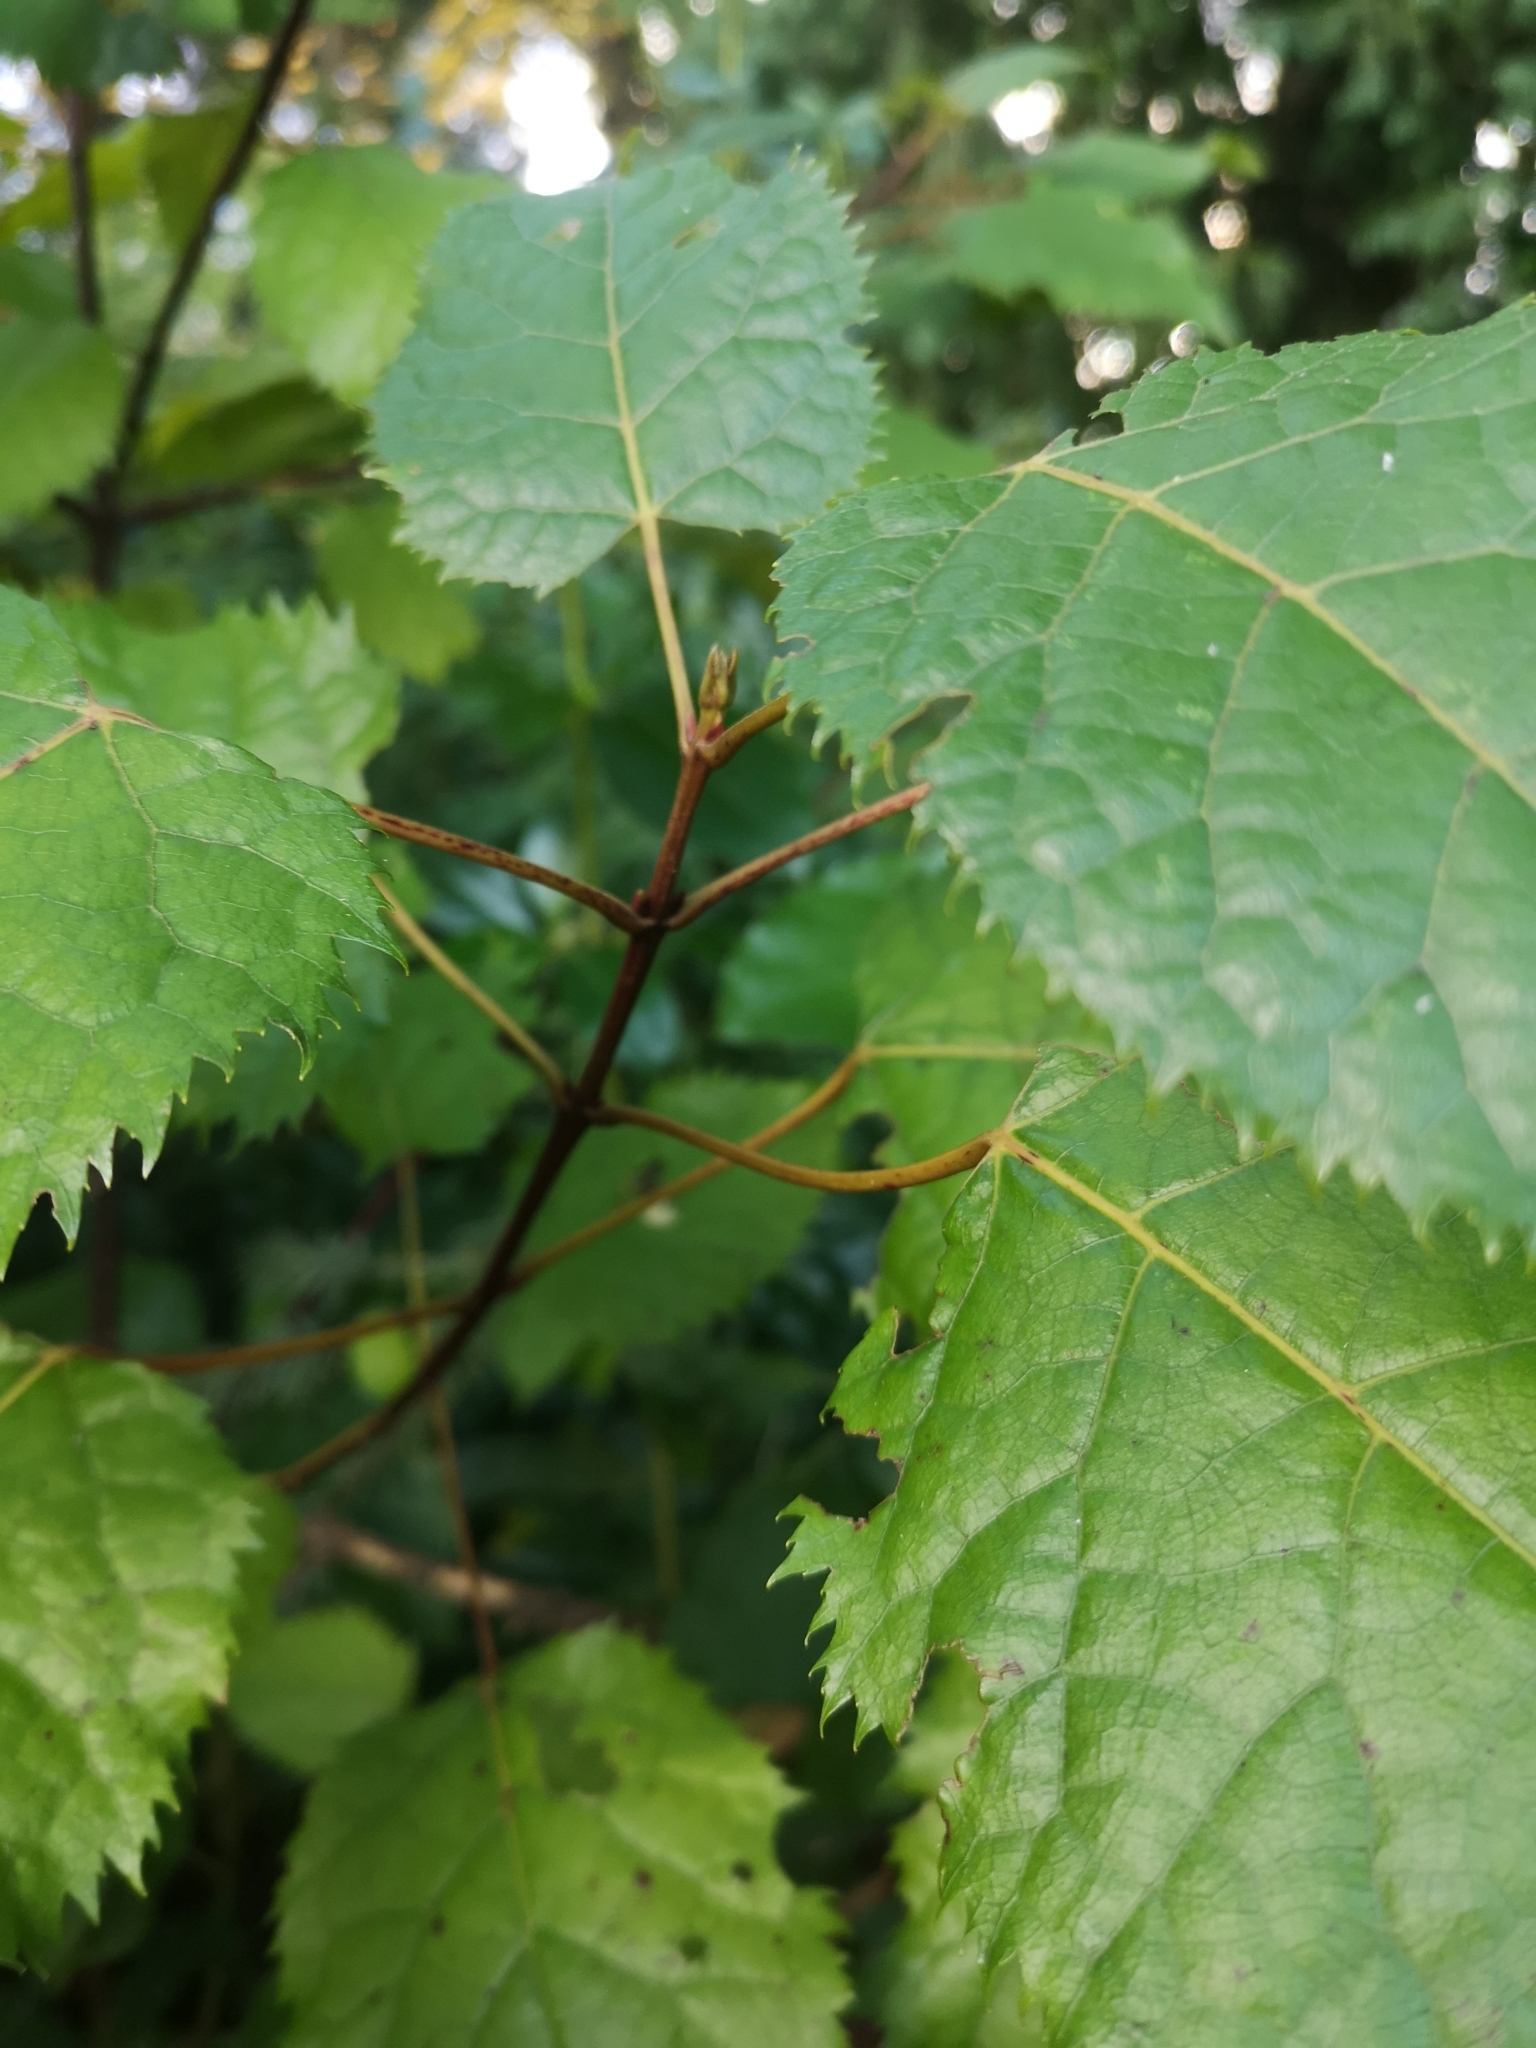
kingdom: Plantae
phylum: Tracheophyta
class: Magnoliopsida
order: Oxalidales
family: Elaeocarpaceae
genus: Aristotelia
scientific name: Aristotelia serrata
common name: New zealand wineberry
